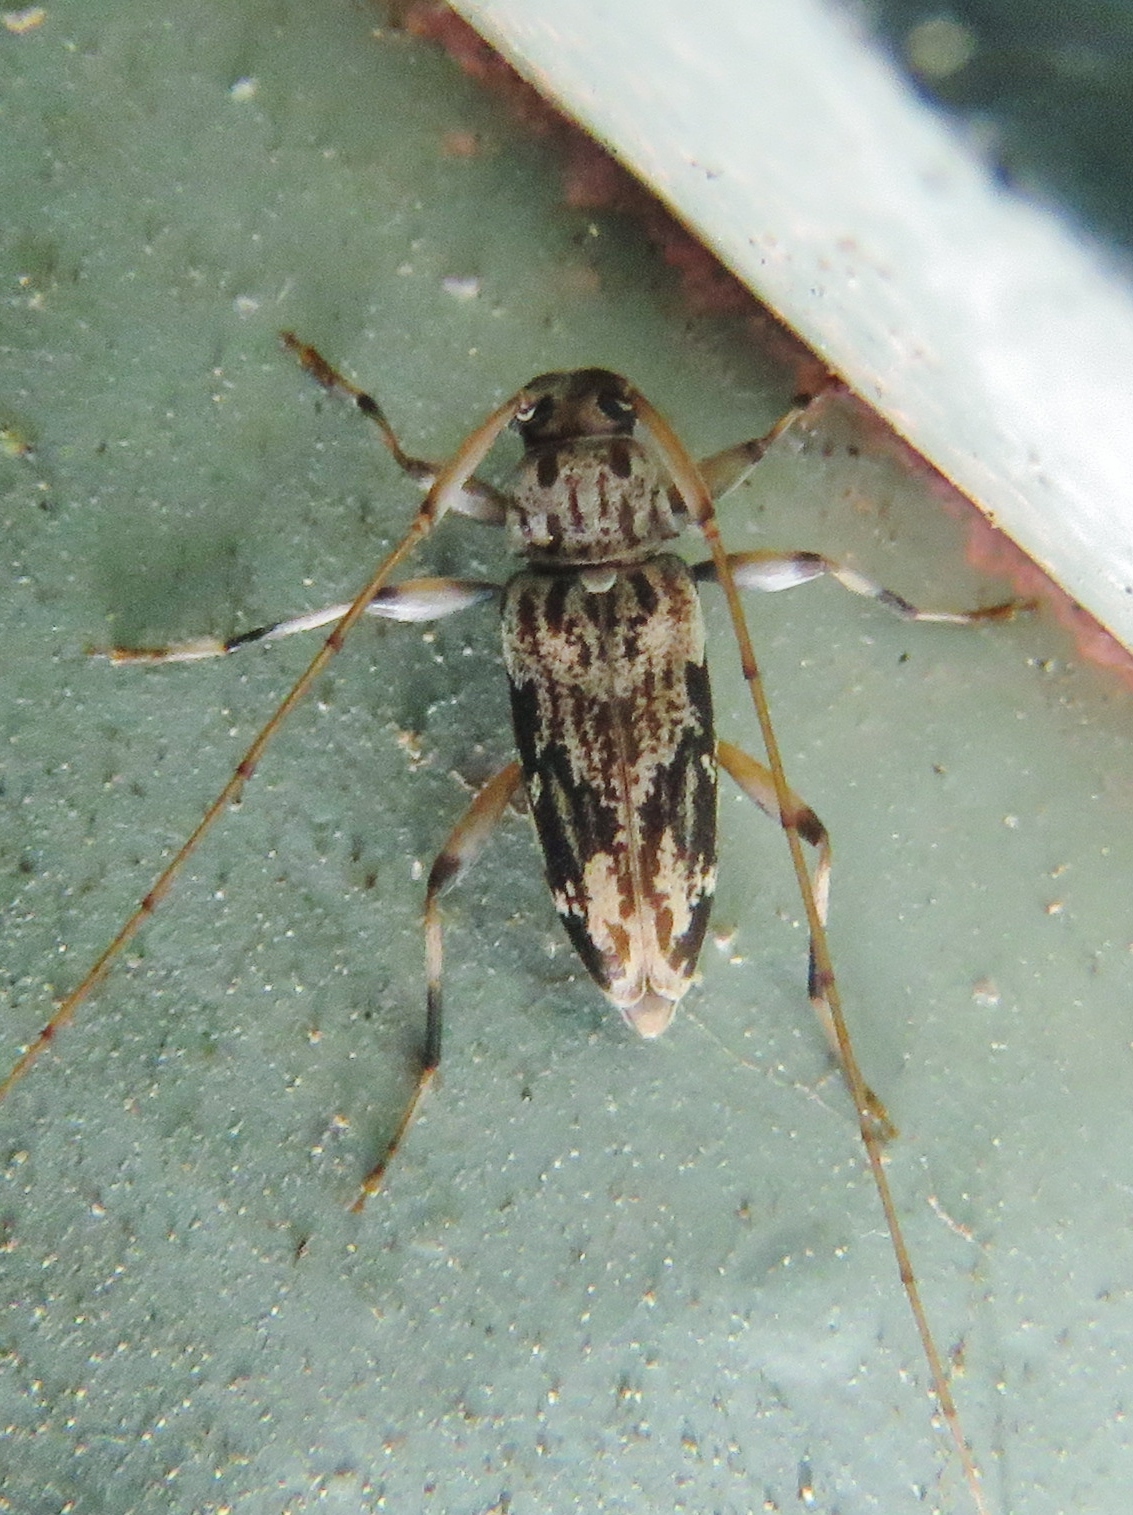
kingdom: Animalia
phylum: Arthropoda
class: Insecta
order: Coleoptera
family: Cerambycidae
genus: Lepturges
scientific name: Lepturges angulatus
